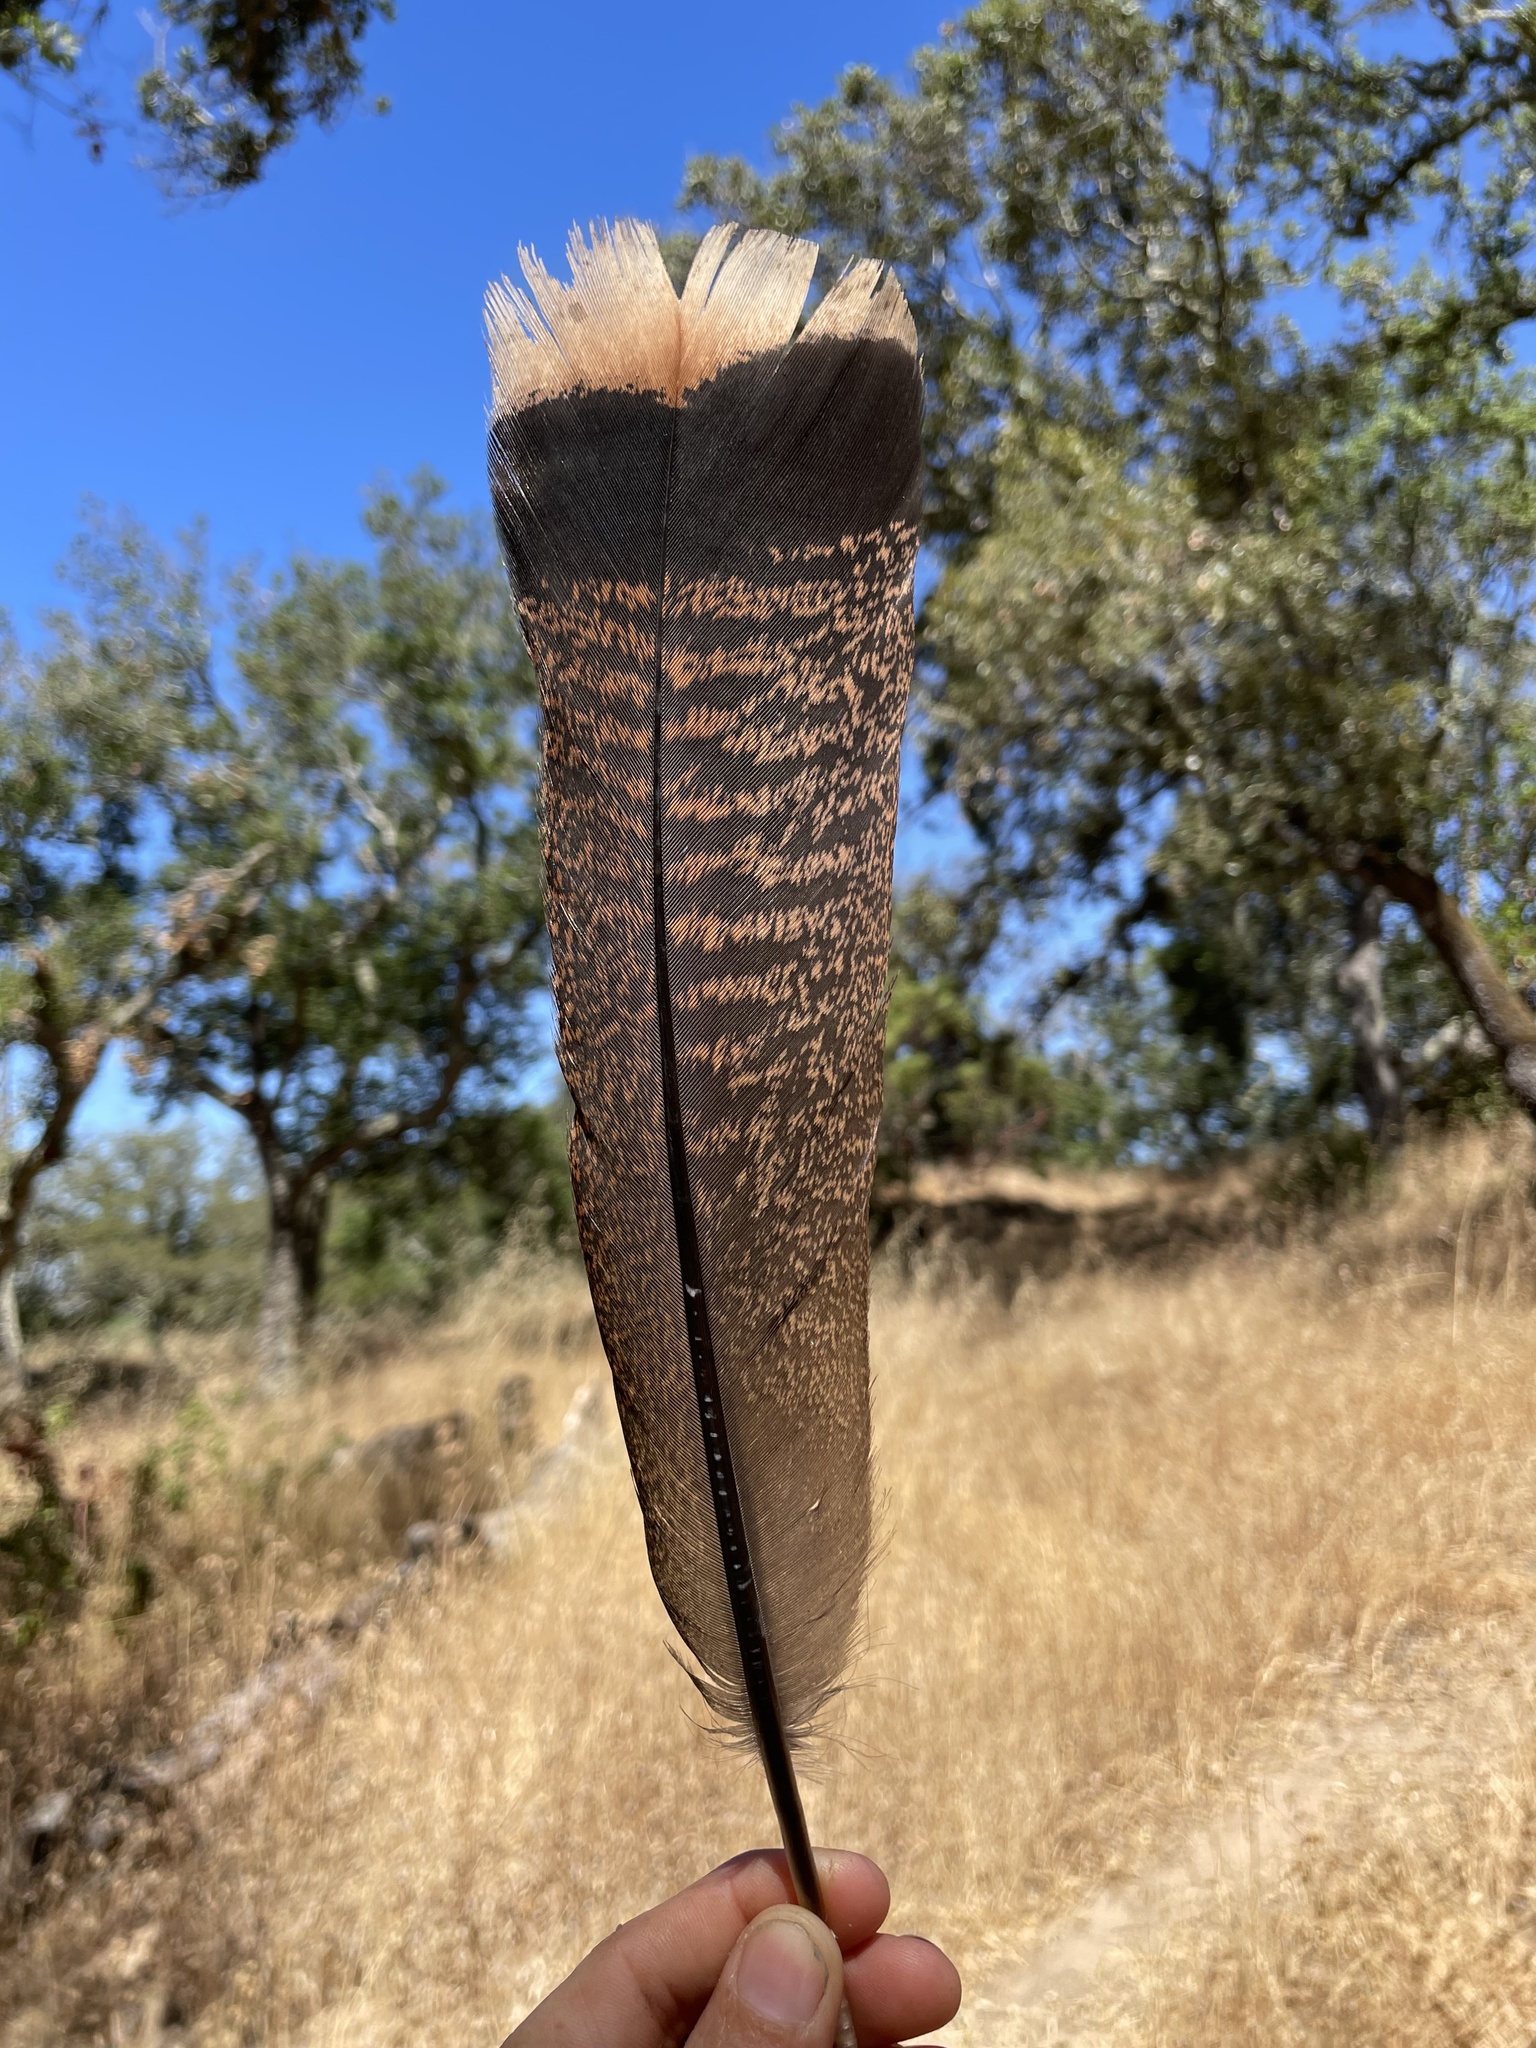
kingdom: Animalia
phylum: Chordata
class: Aves
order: Galliformes
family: Phasianidae
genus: Meleagris
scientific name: Meleagris gallopavo
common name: Wild turkey
